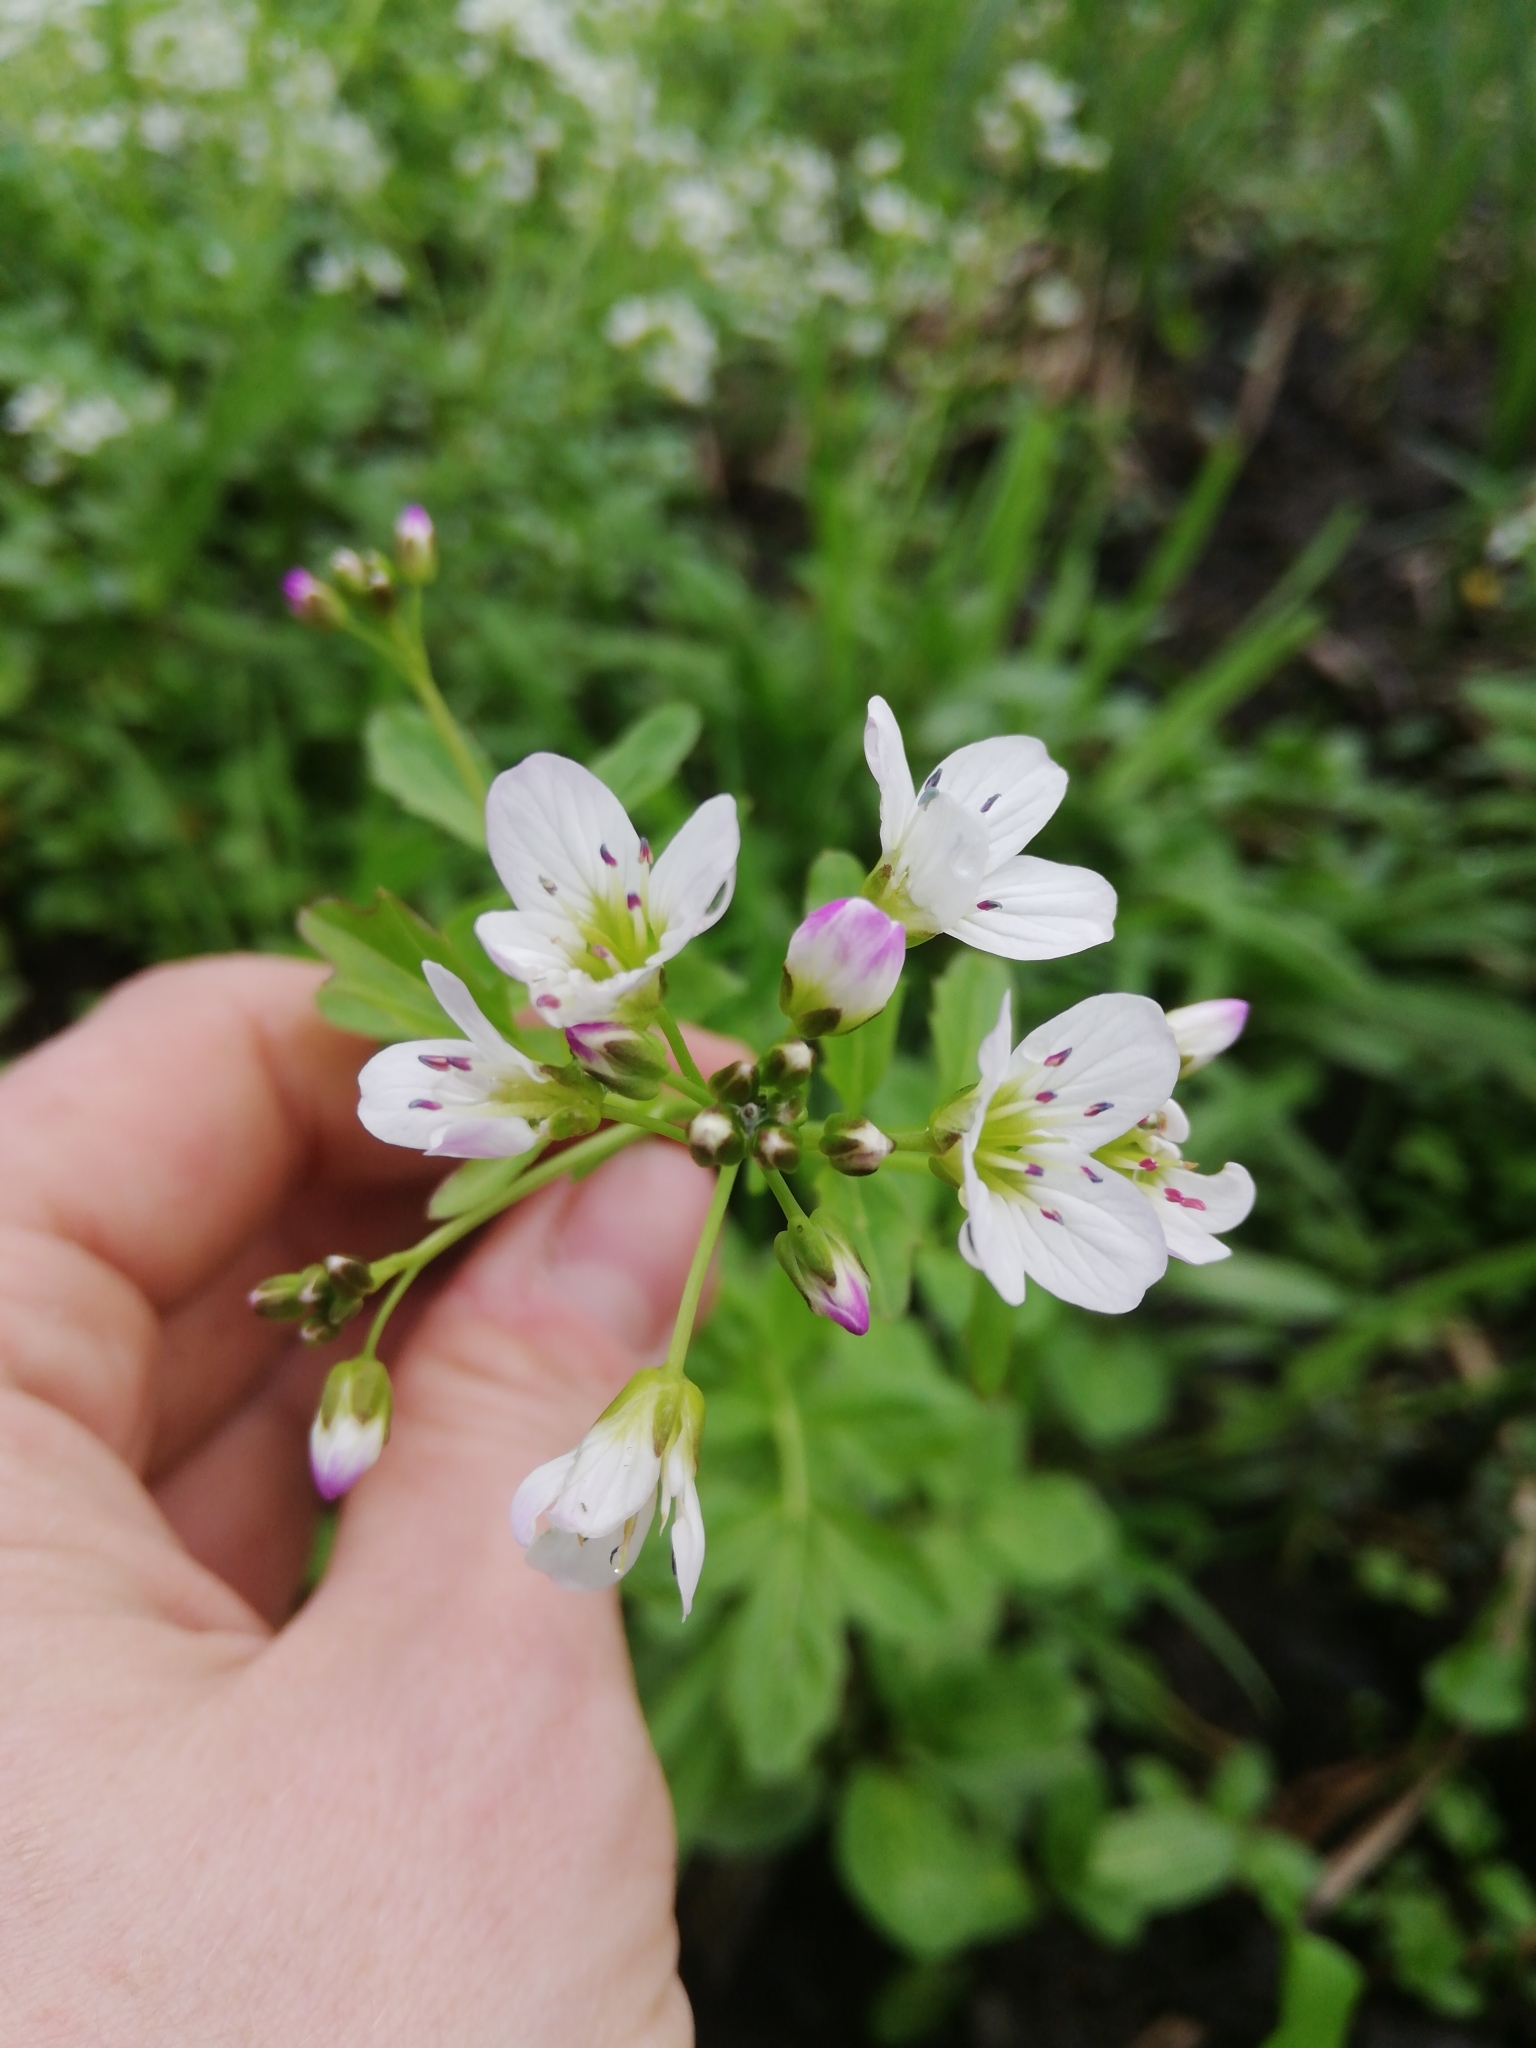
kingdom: Plantae
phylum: Tracheophyta
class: Magnoliopsida
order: Brassicales
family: Brassicaceae
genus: Cardamine
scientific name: Cardamine amara
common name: Large bitter-cress
